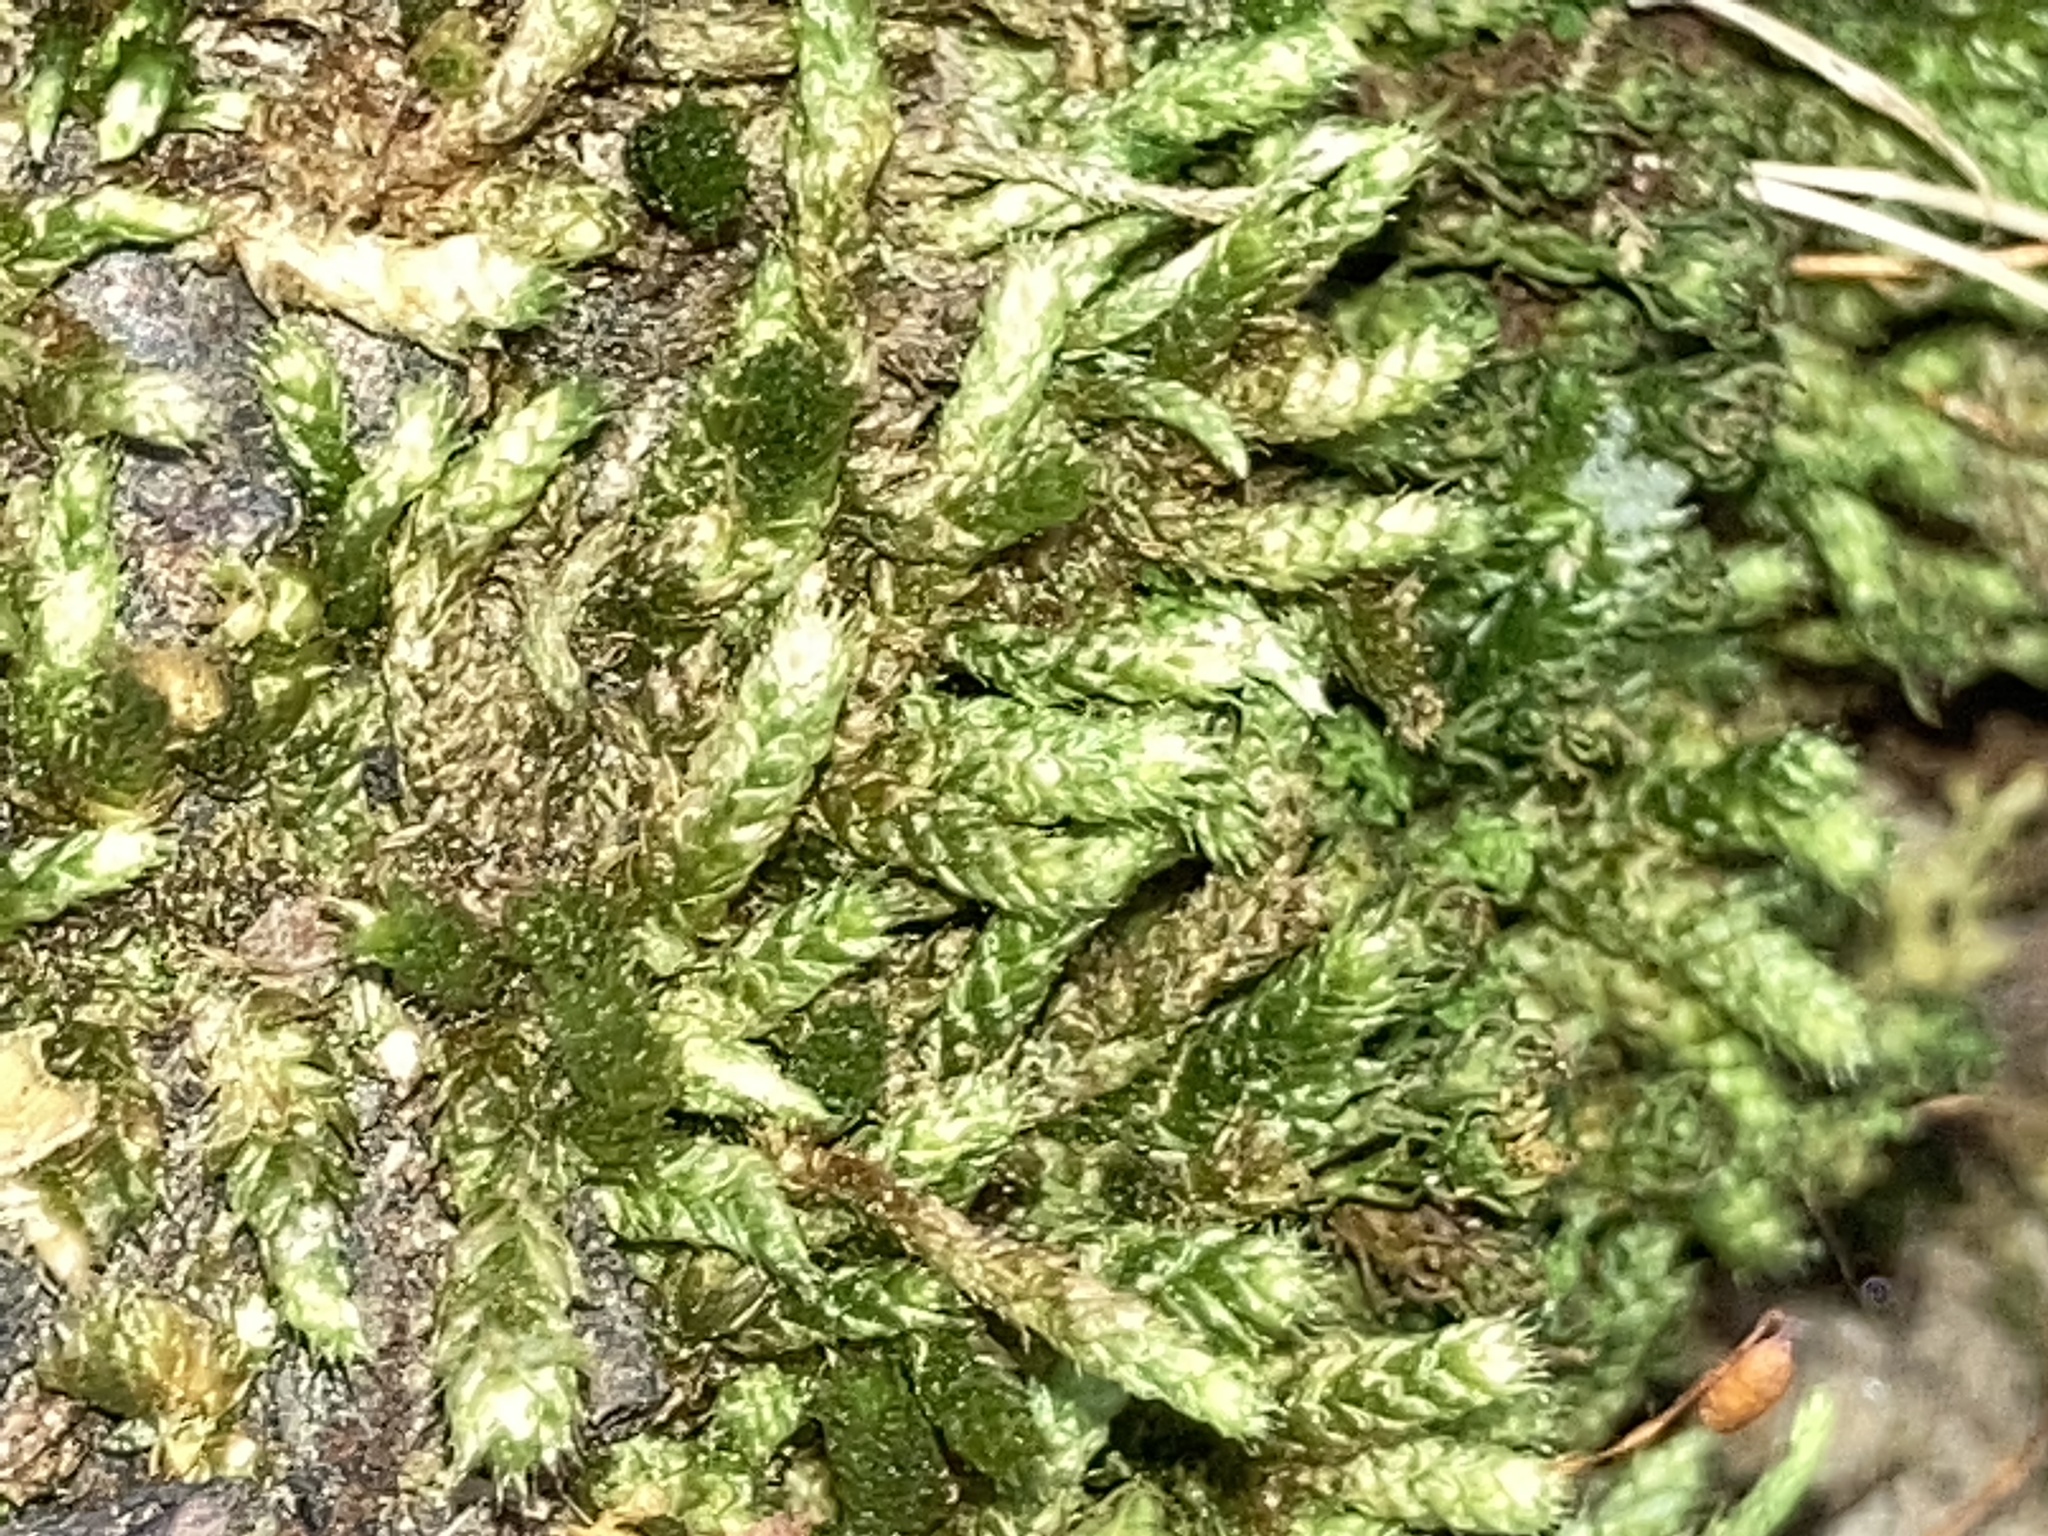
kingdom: Plantae
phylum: Bryophyta
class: Bryopsida
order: Hypnales
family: Brachytheciaceae
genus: Bryoandersonia
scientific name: Bryoandersonia illecebra
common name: Spoon-leaved moss
